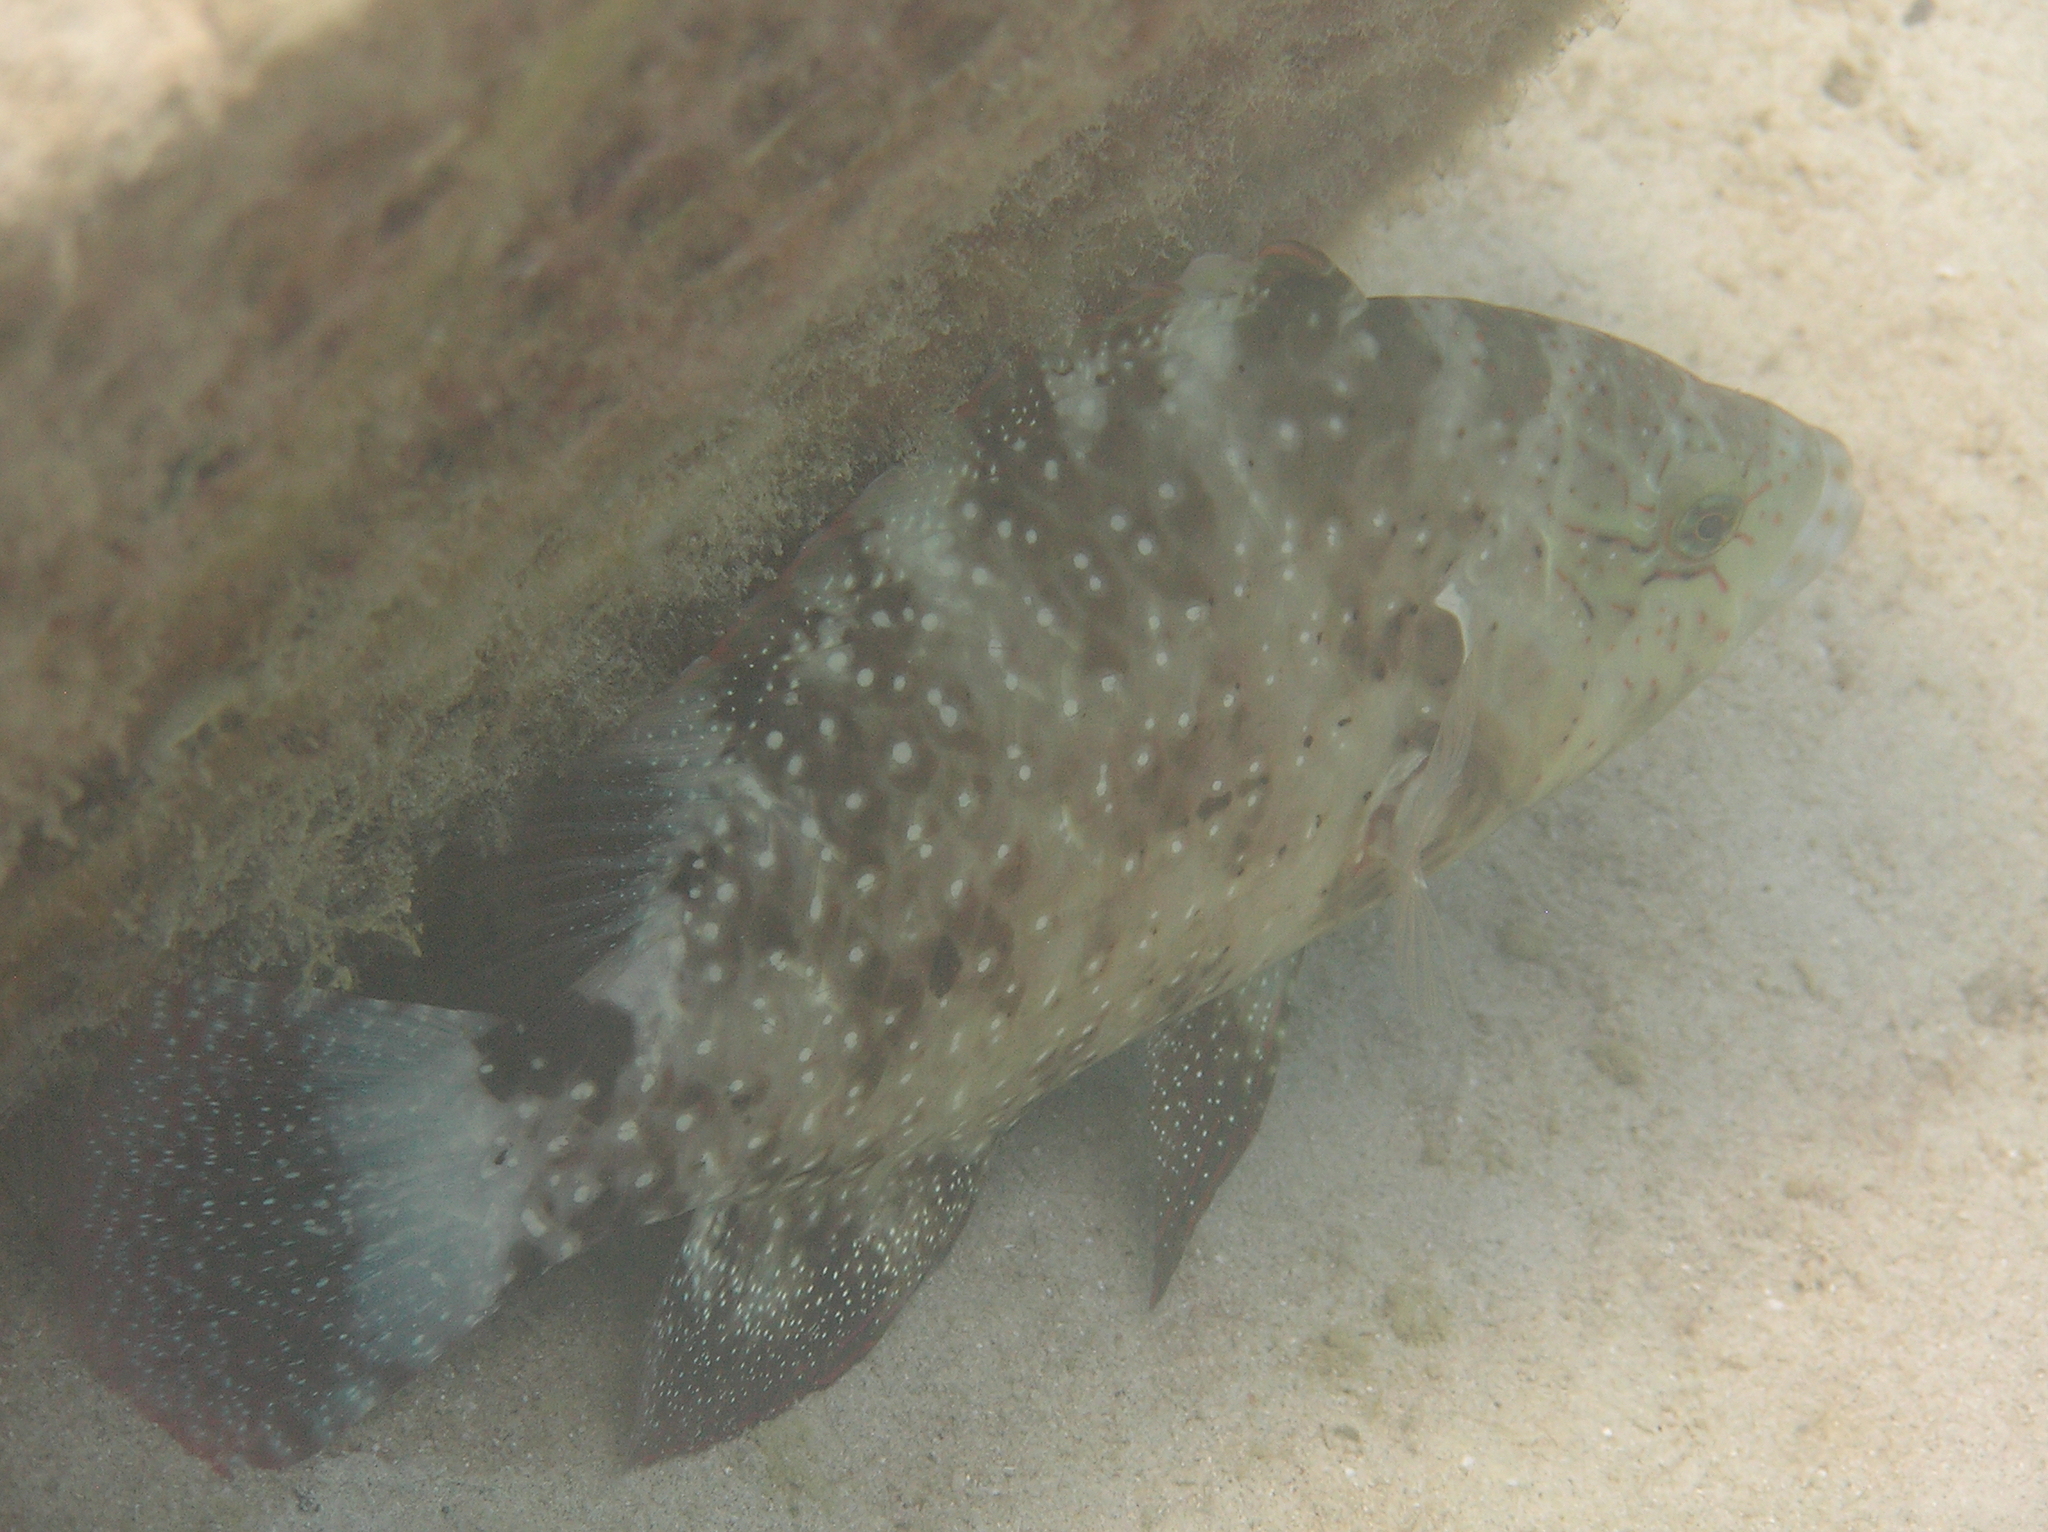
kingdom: Animalia
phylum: Chordata
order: Perciformes
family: Labridae
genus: Cheilinus
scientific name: Cheilinus chlorourus
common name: Floral wrasse
